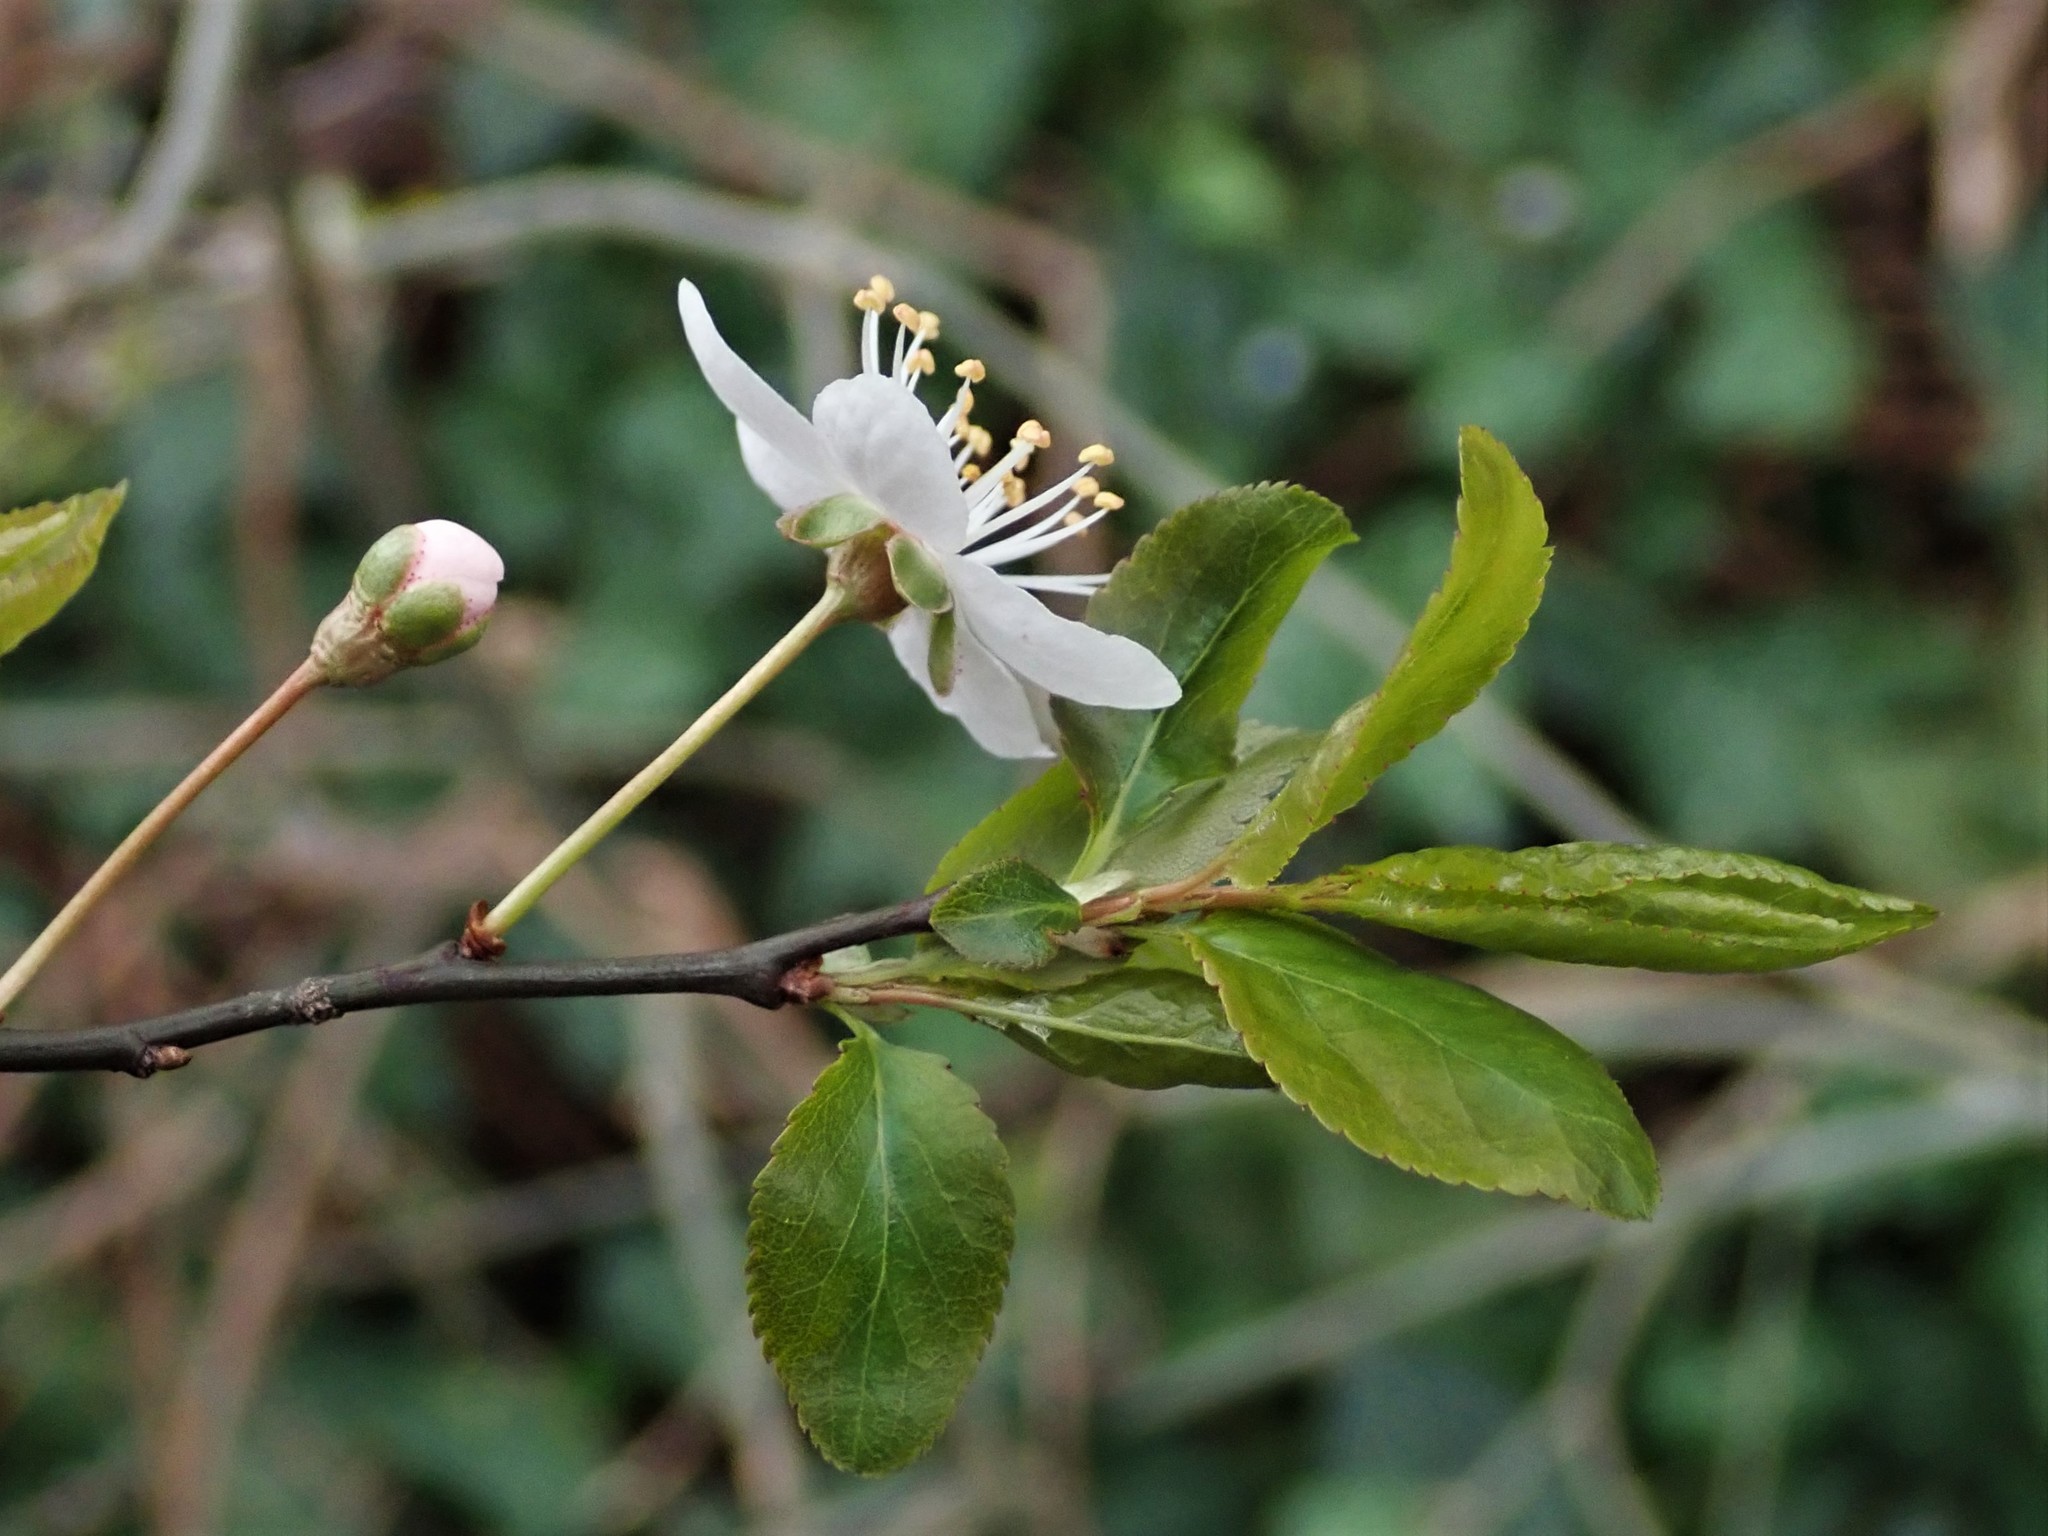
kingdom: Plantae
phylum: Tracheophyta
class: Magnoliopsida
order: Rosales
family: Rosaceae
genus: Prunus
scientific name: Prunus cerasifera
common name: Cherry plum
